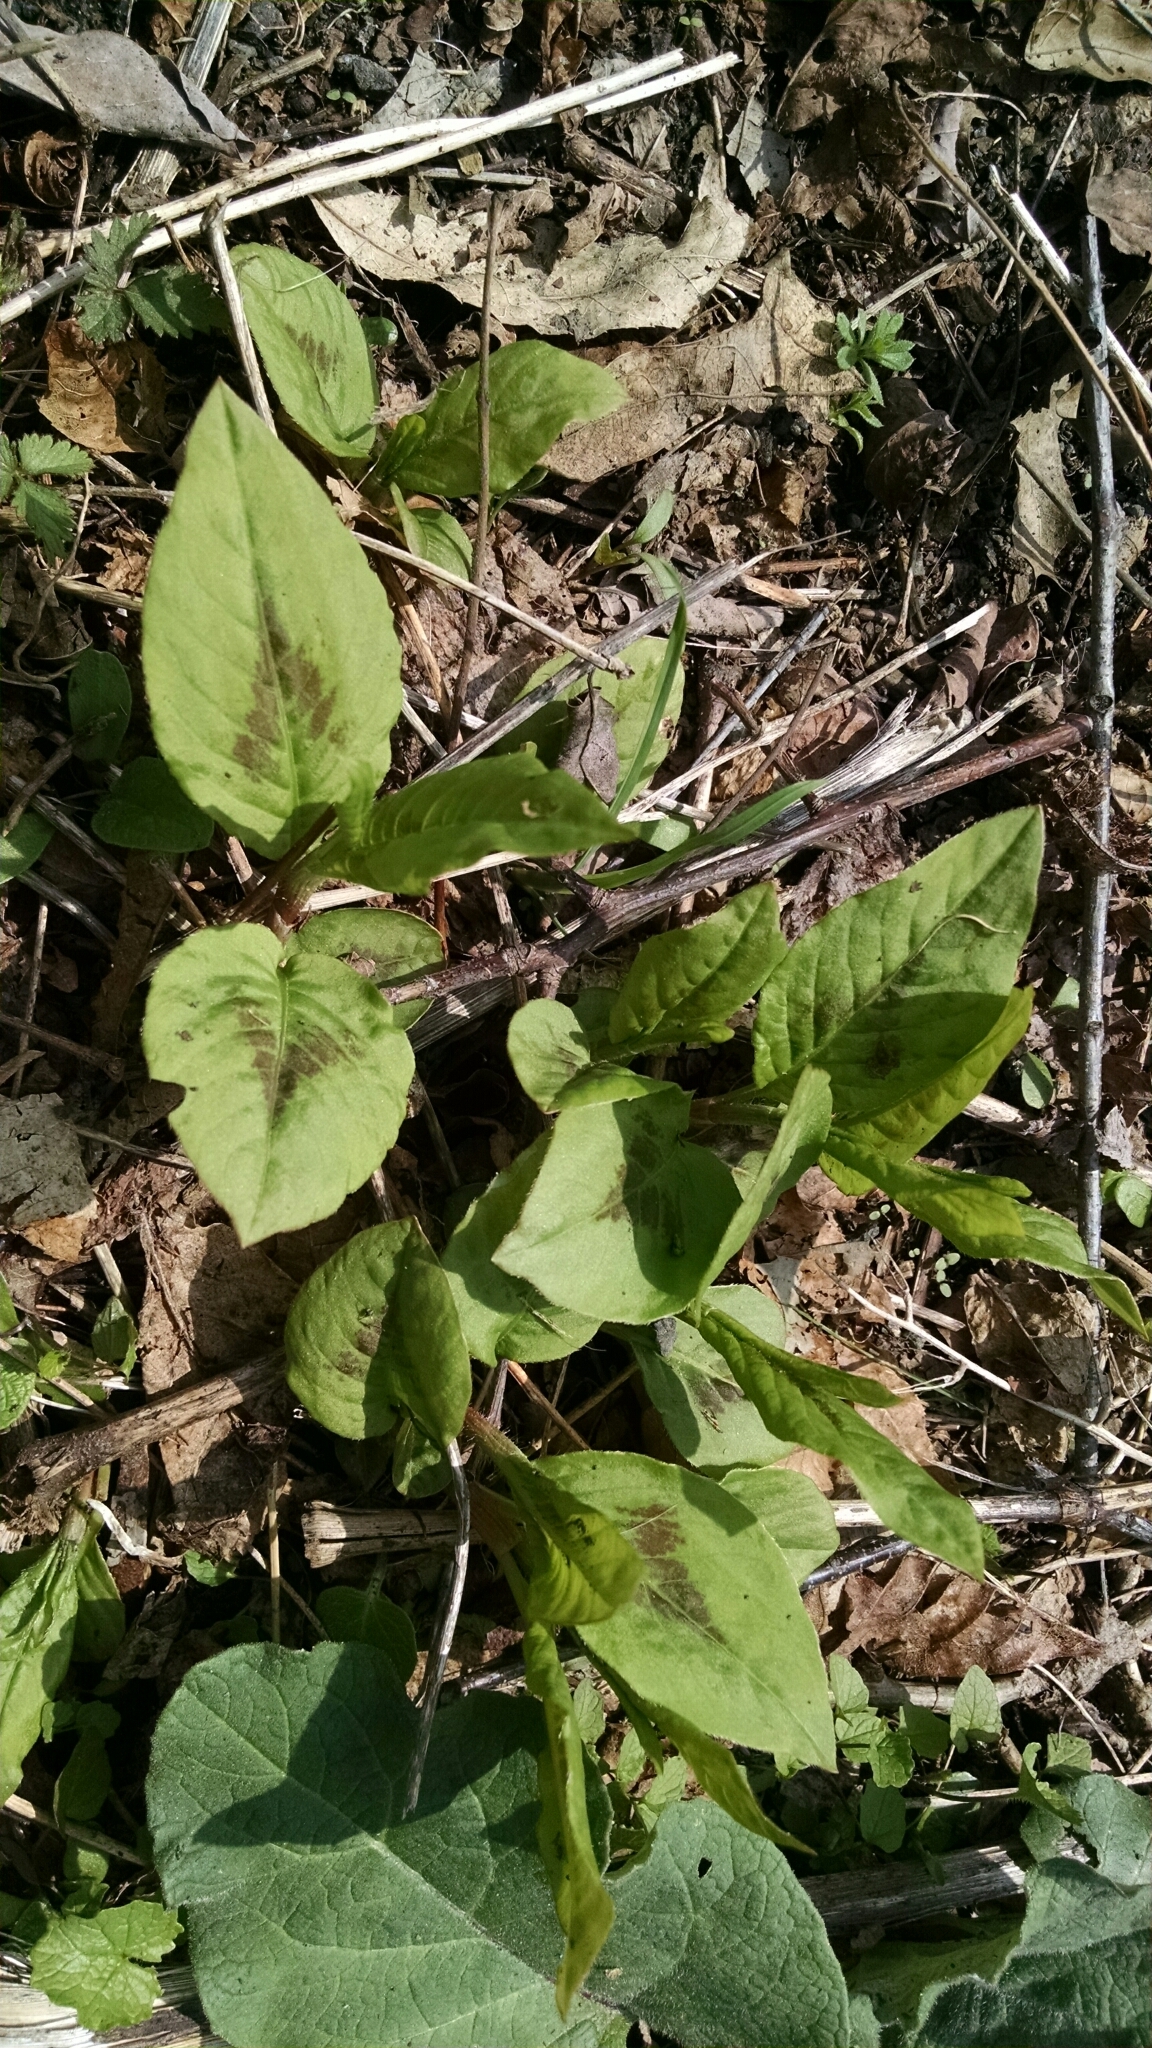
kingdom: Plantae
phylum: Tracheophyta
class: Magnoliopsida
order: Caryophyllales
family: Polygonaceae
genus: Persicaria
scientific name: Persicaria virginiana
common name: Jumpseed
